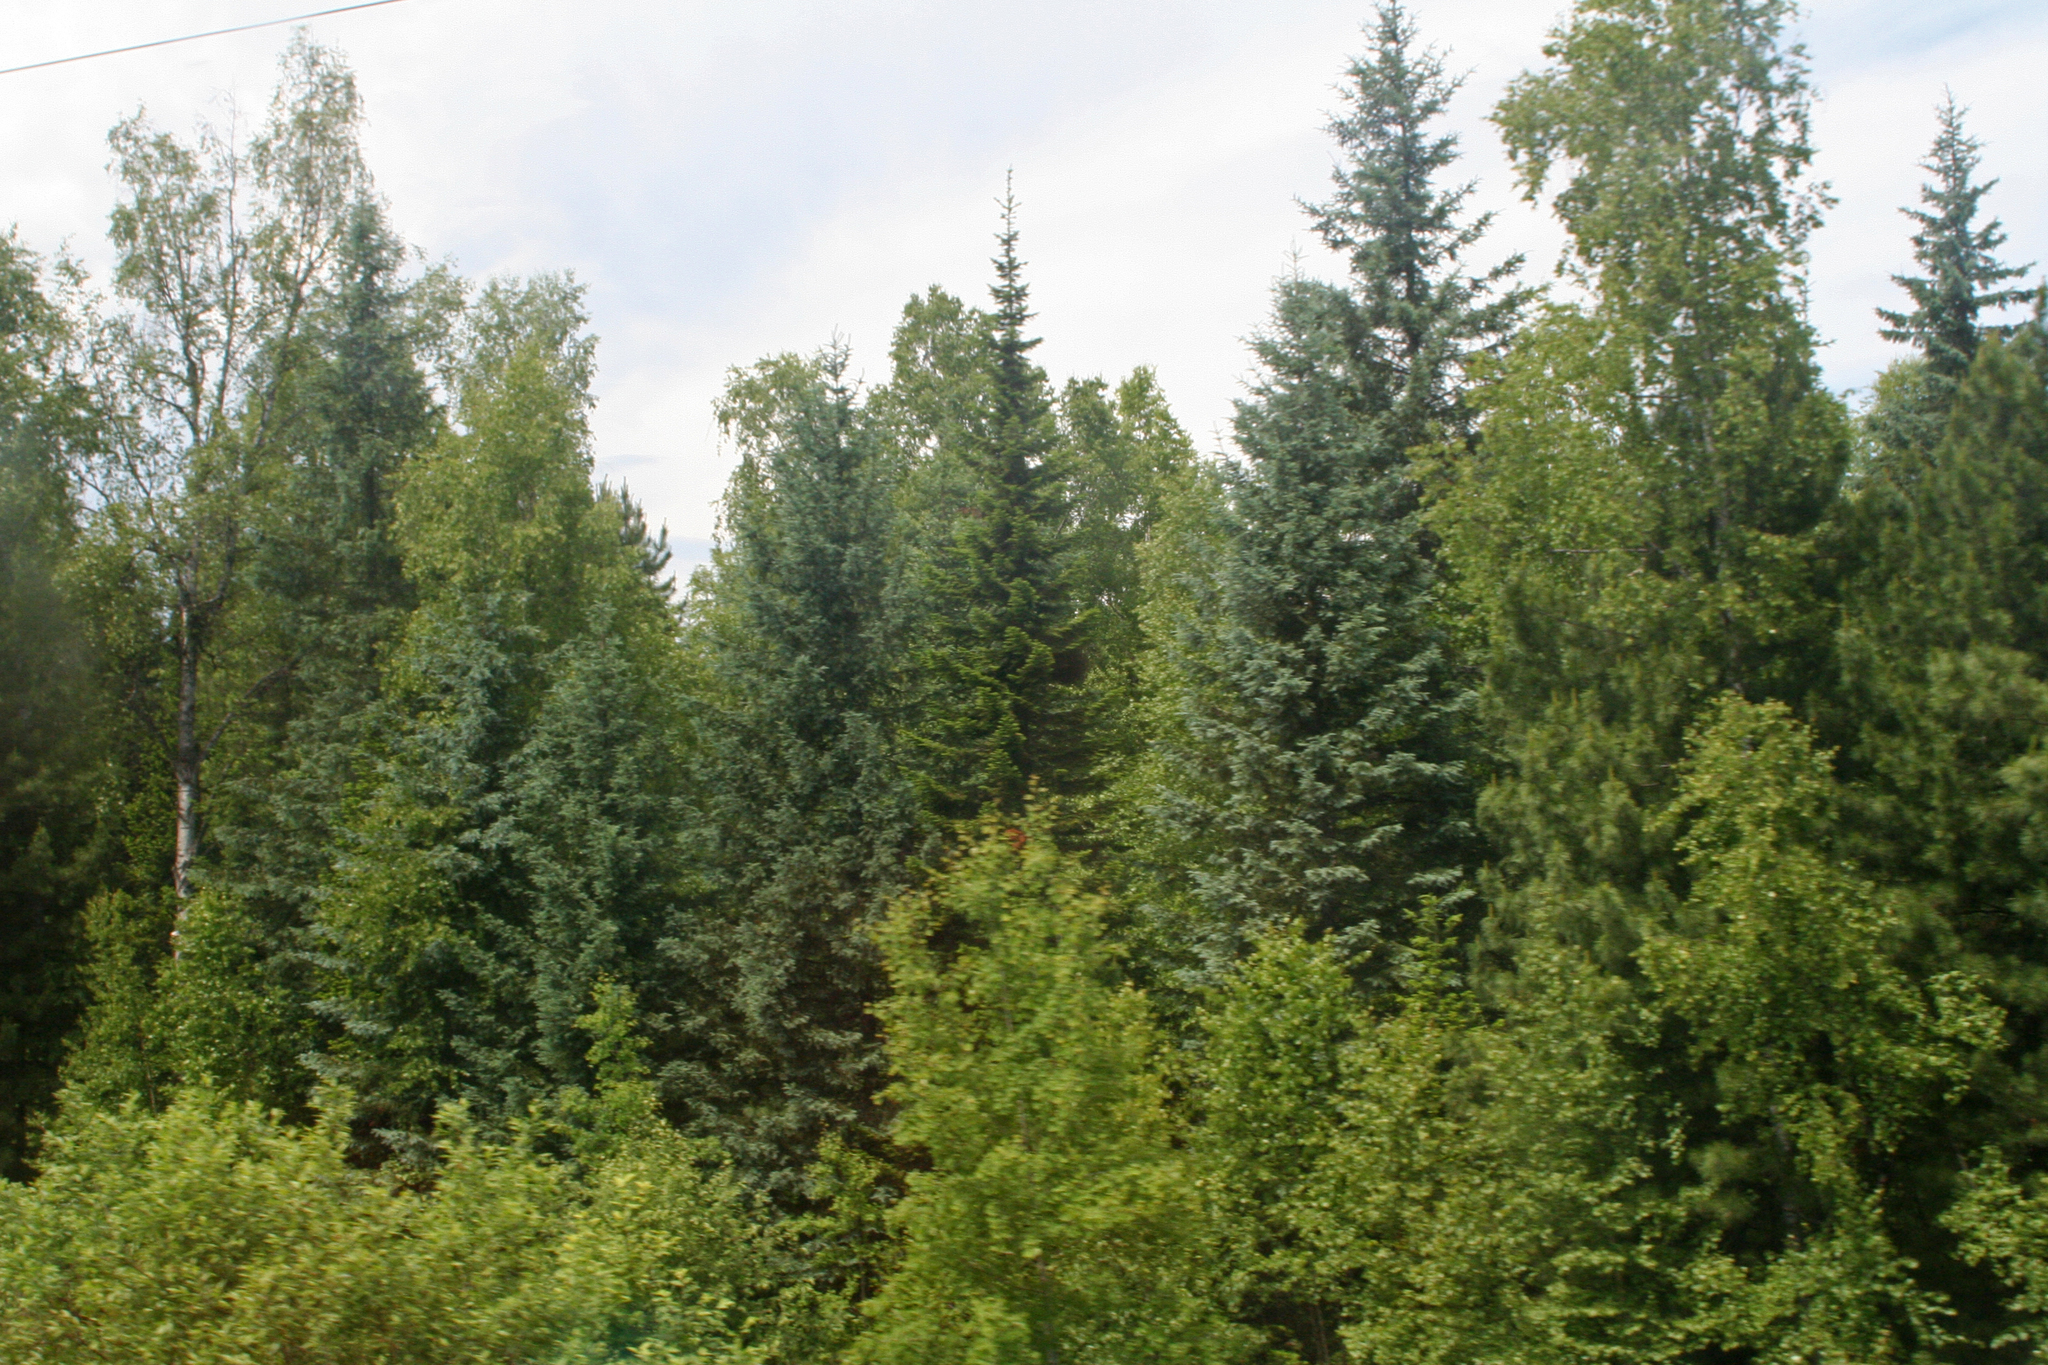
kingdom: Plantae
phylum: Tracheophyta
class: Pinopsida
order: Pinales
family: Pinaceae
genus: Picea
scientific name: Picea obovata
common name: Siberian spruce
